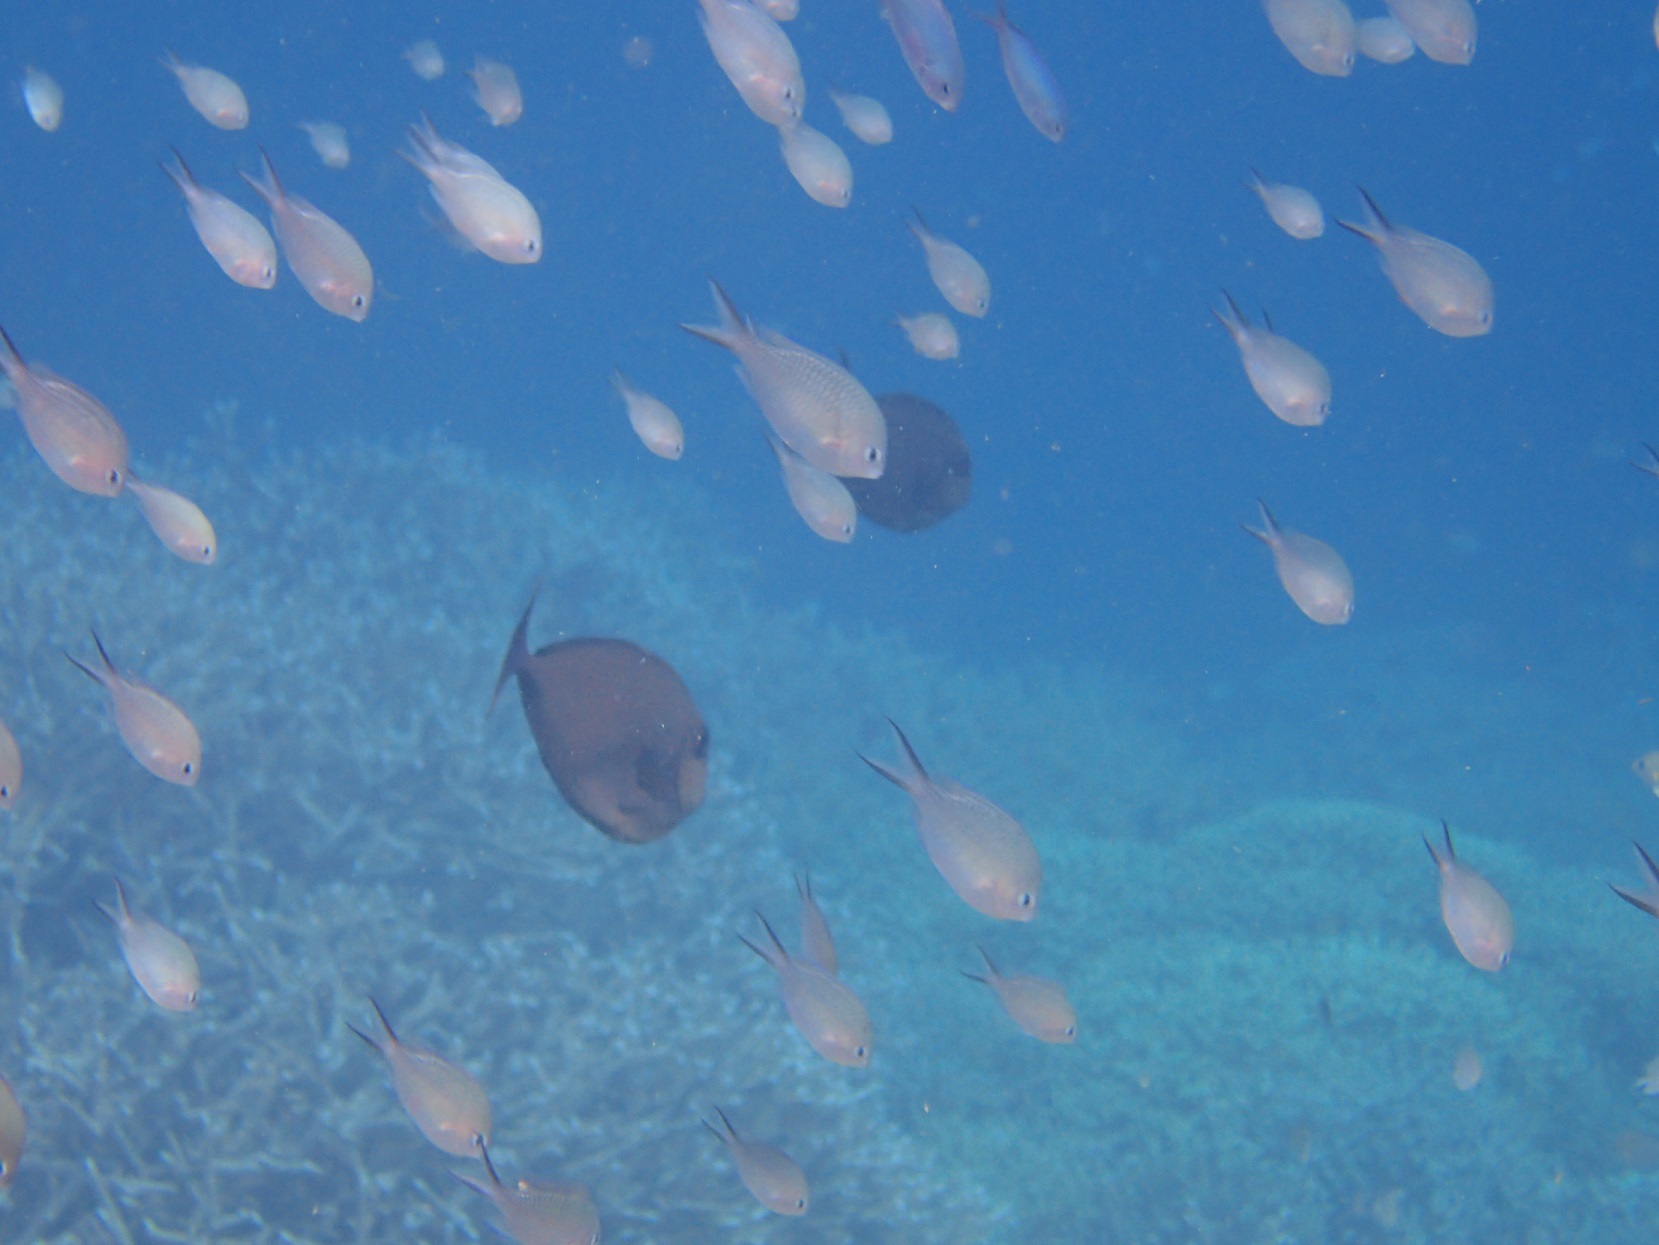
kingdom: Animalia
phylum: Chordata
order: Perciformes
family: Pomacentridae
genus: Chromis
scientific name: Chromis ternatensis
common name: Ternate chromis
